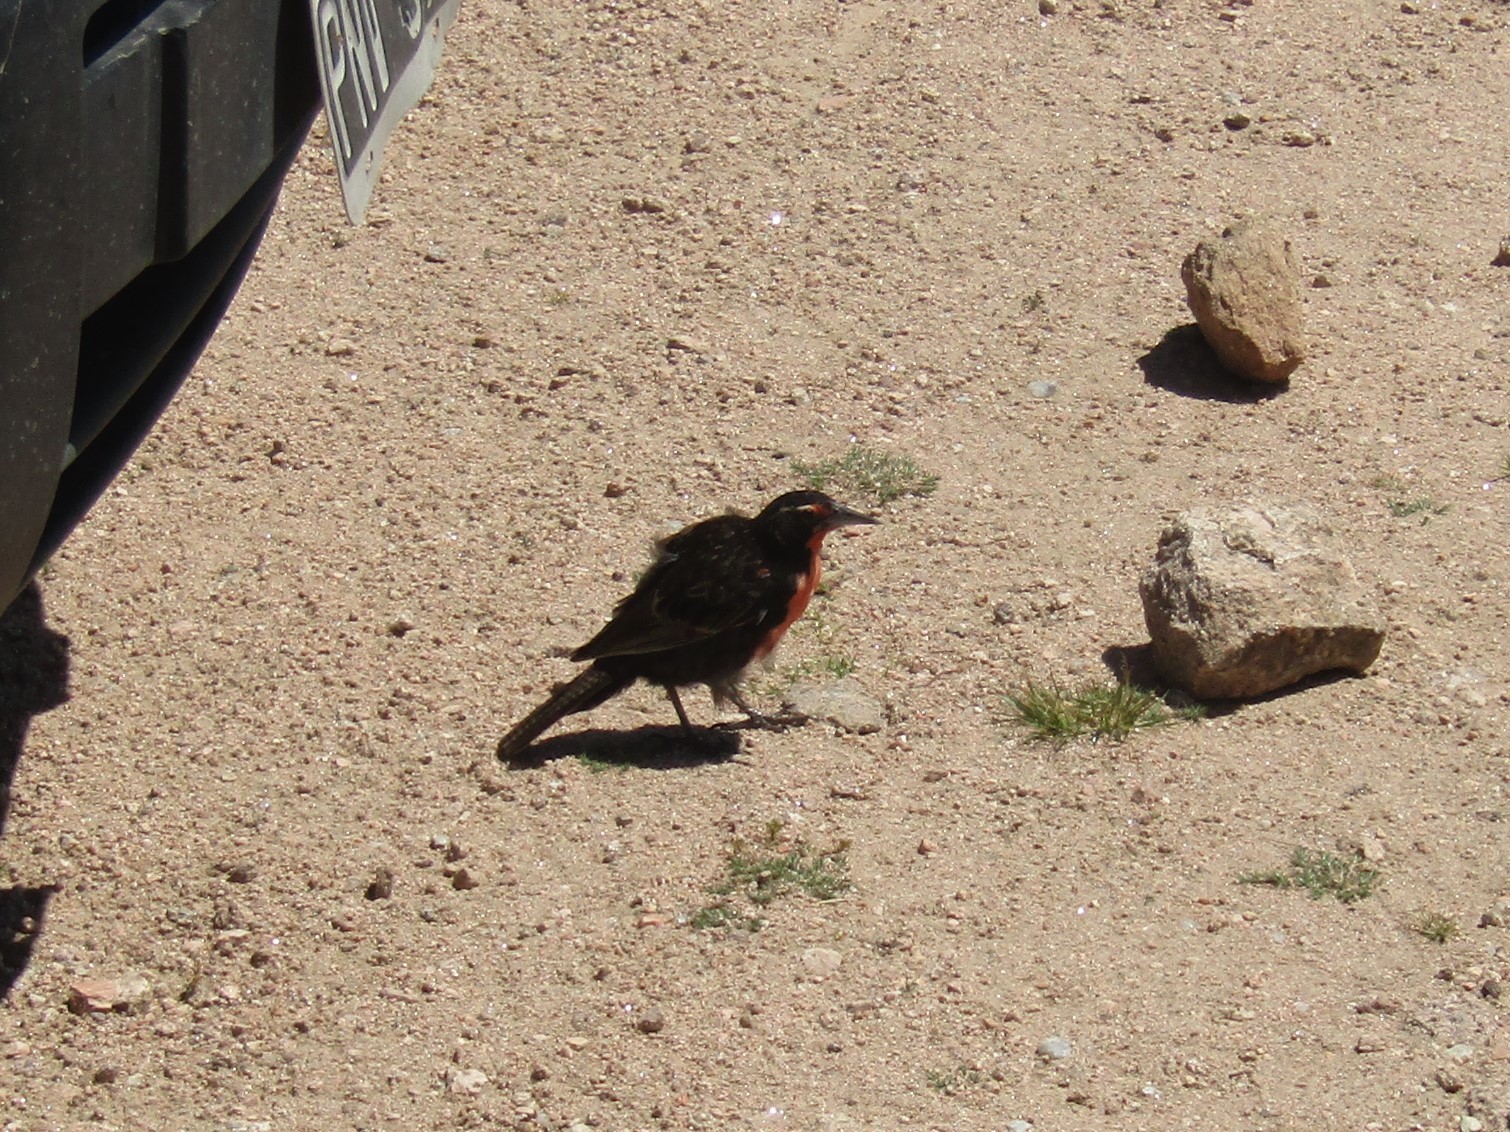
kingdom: Animalia
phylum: Chordata
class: Aves
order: Passeriformes
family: Icteridae
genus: Sturnella
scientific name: Sturnella loyca
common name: Long-tailed meadowlark
